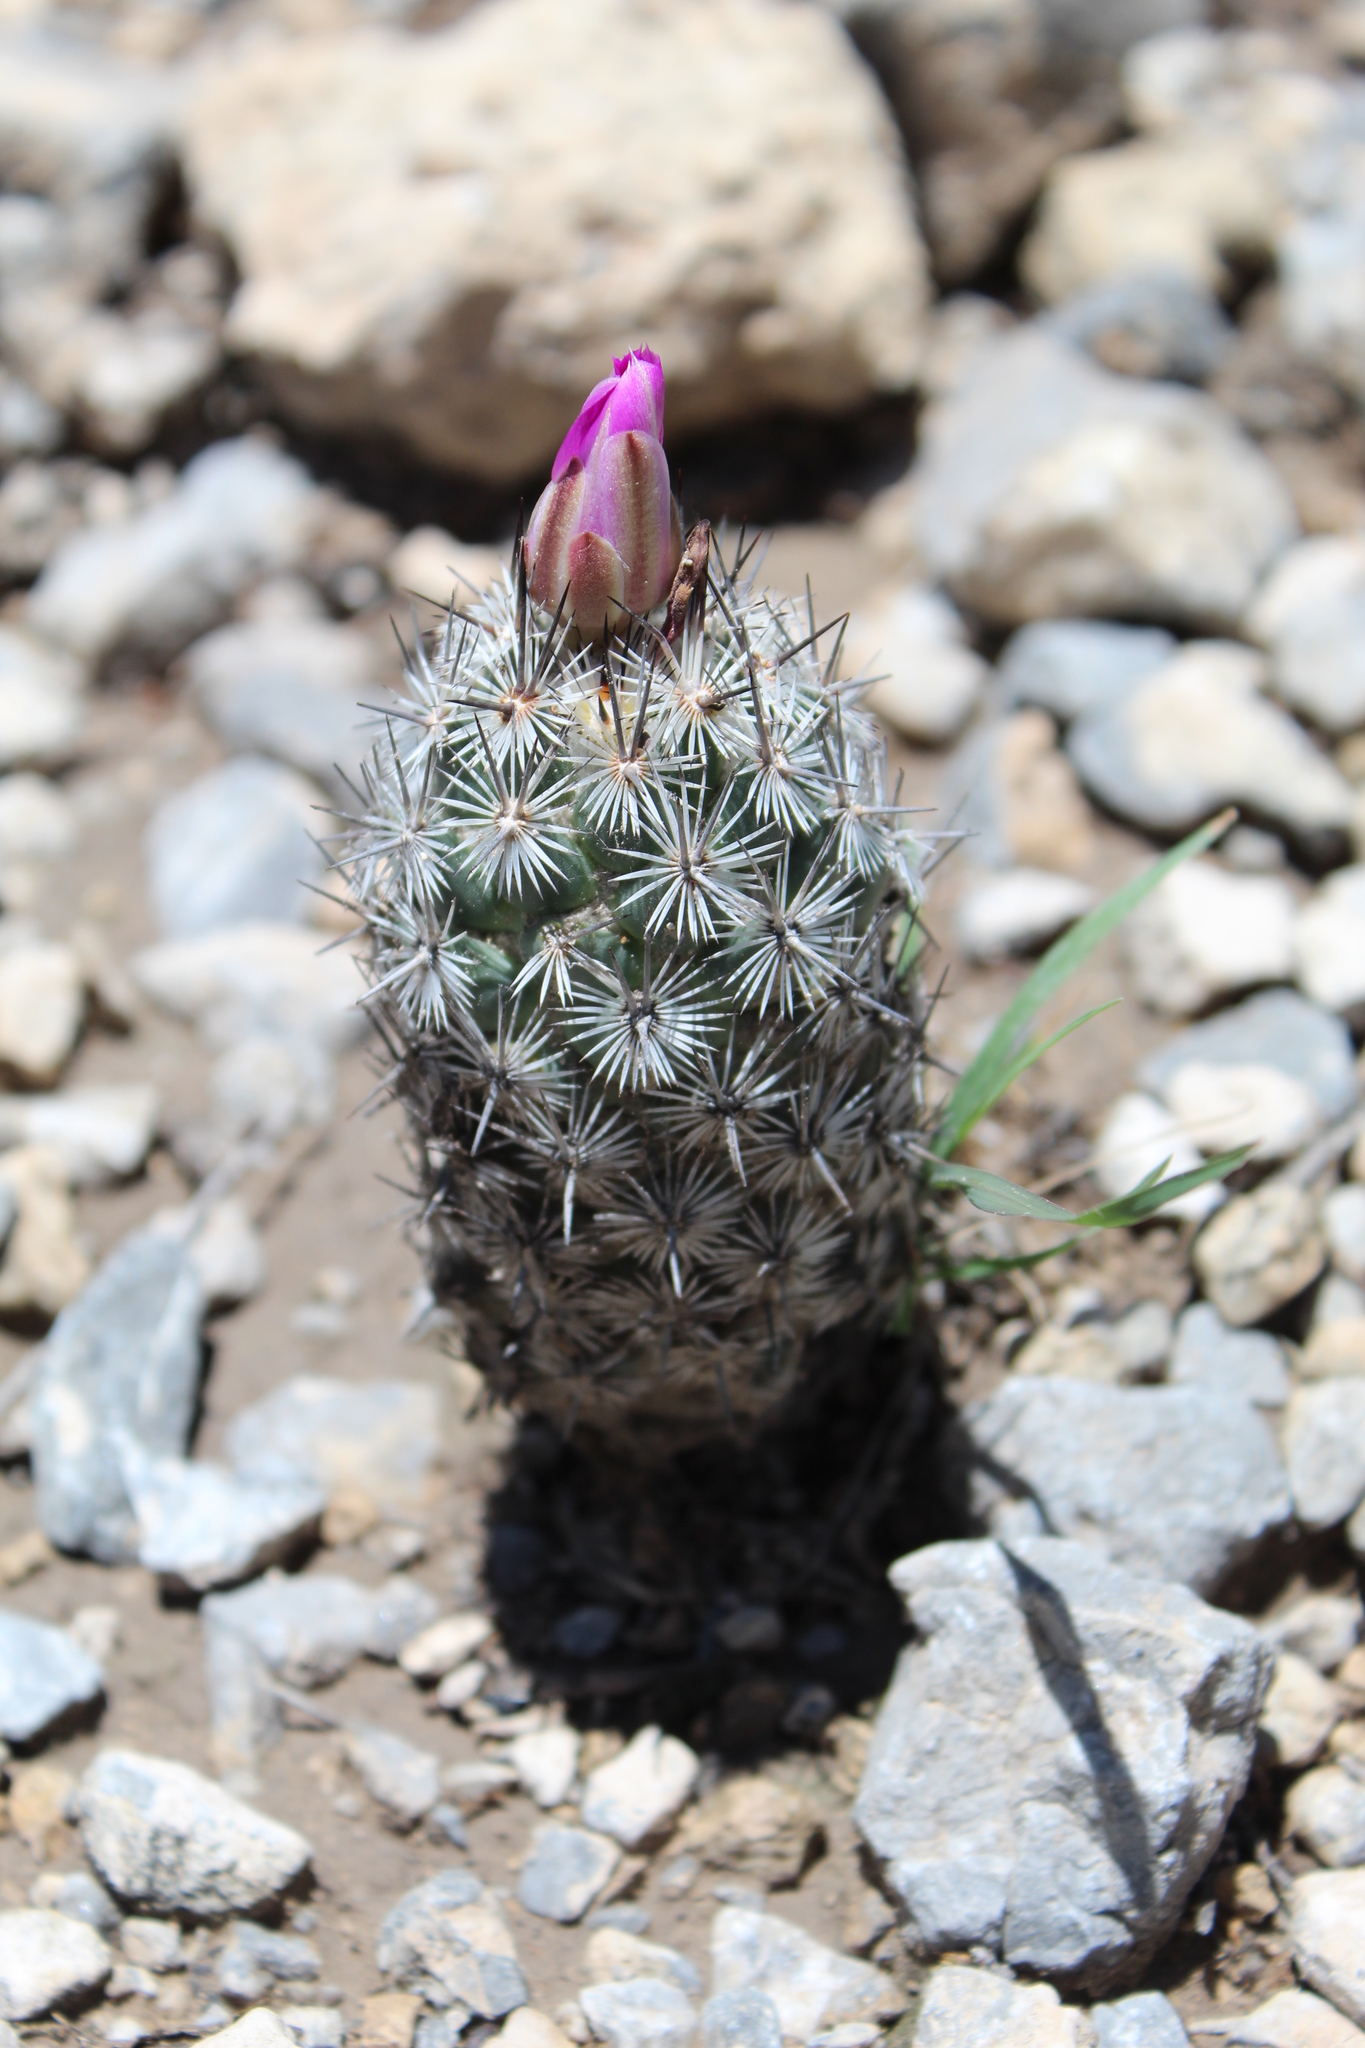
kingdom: Plantae
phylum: Tracheophyta
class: Magnoliopsida
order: Caryophyllales
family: Cactaceae
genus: Cochemiea
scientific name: Cochemiea conoidea
